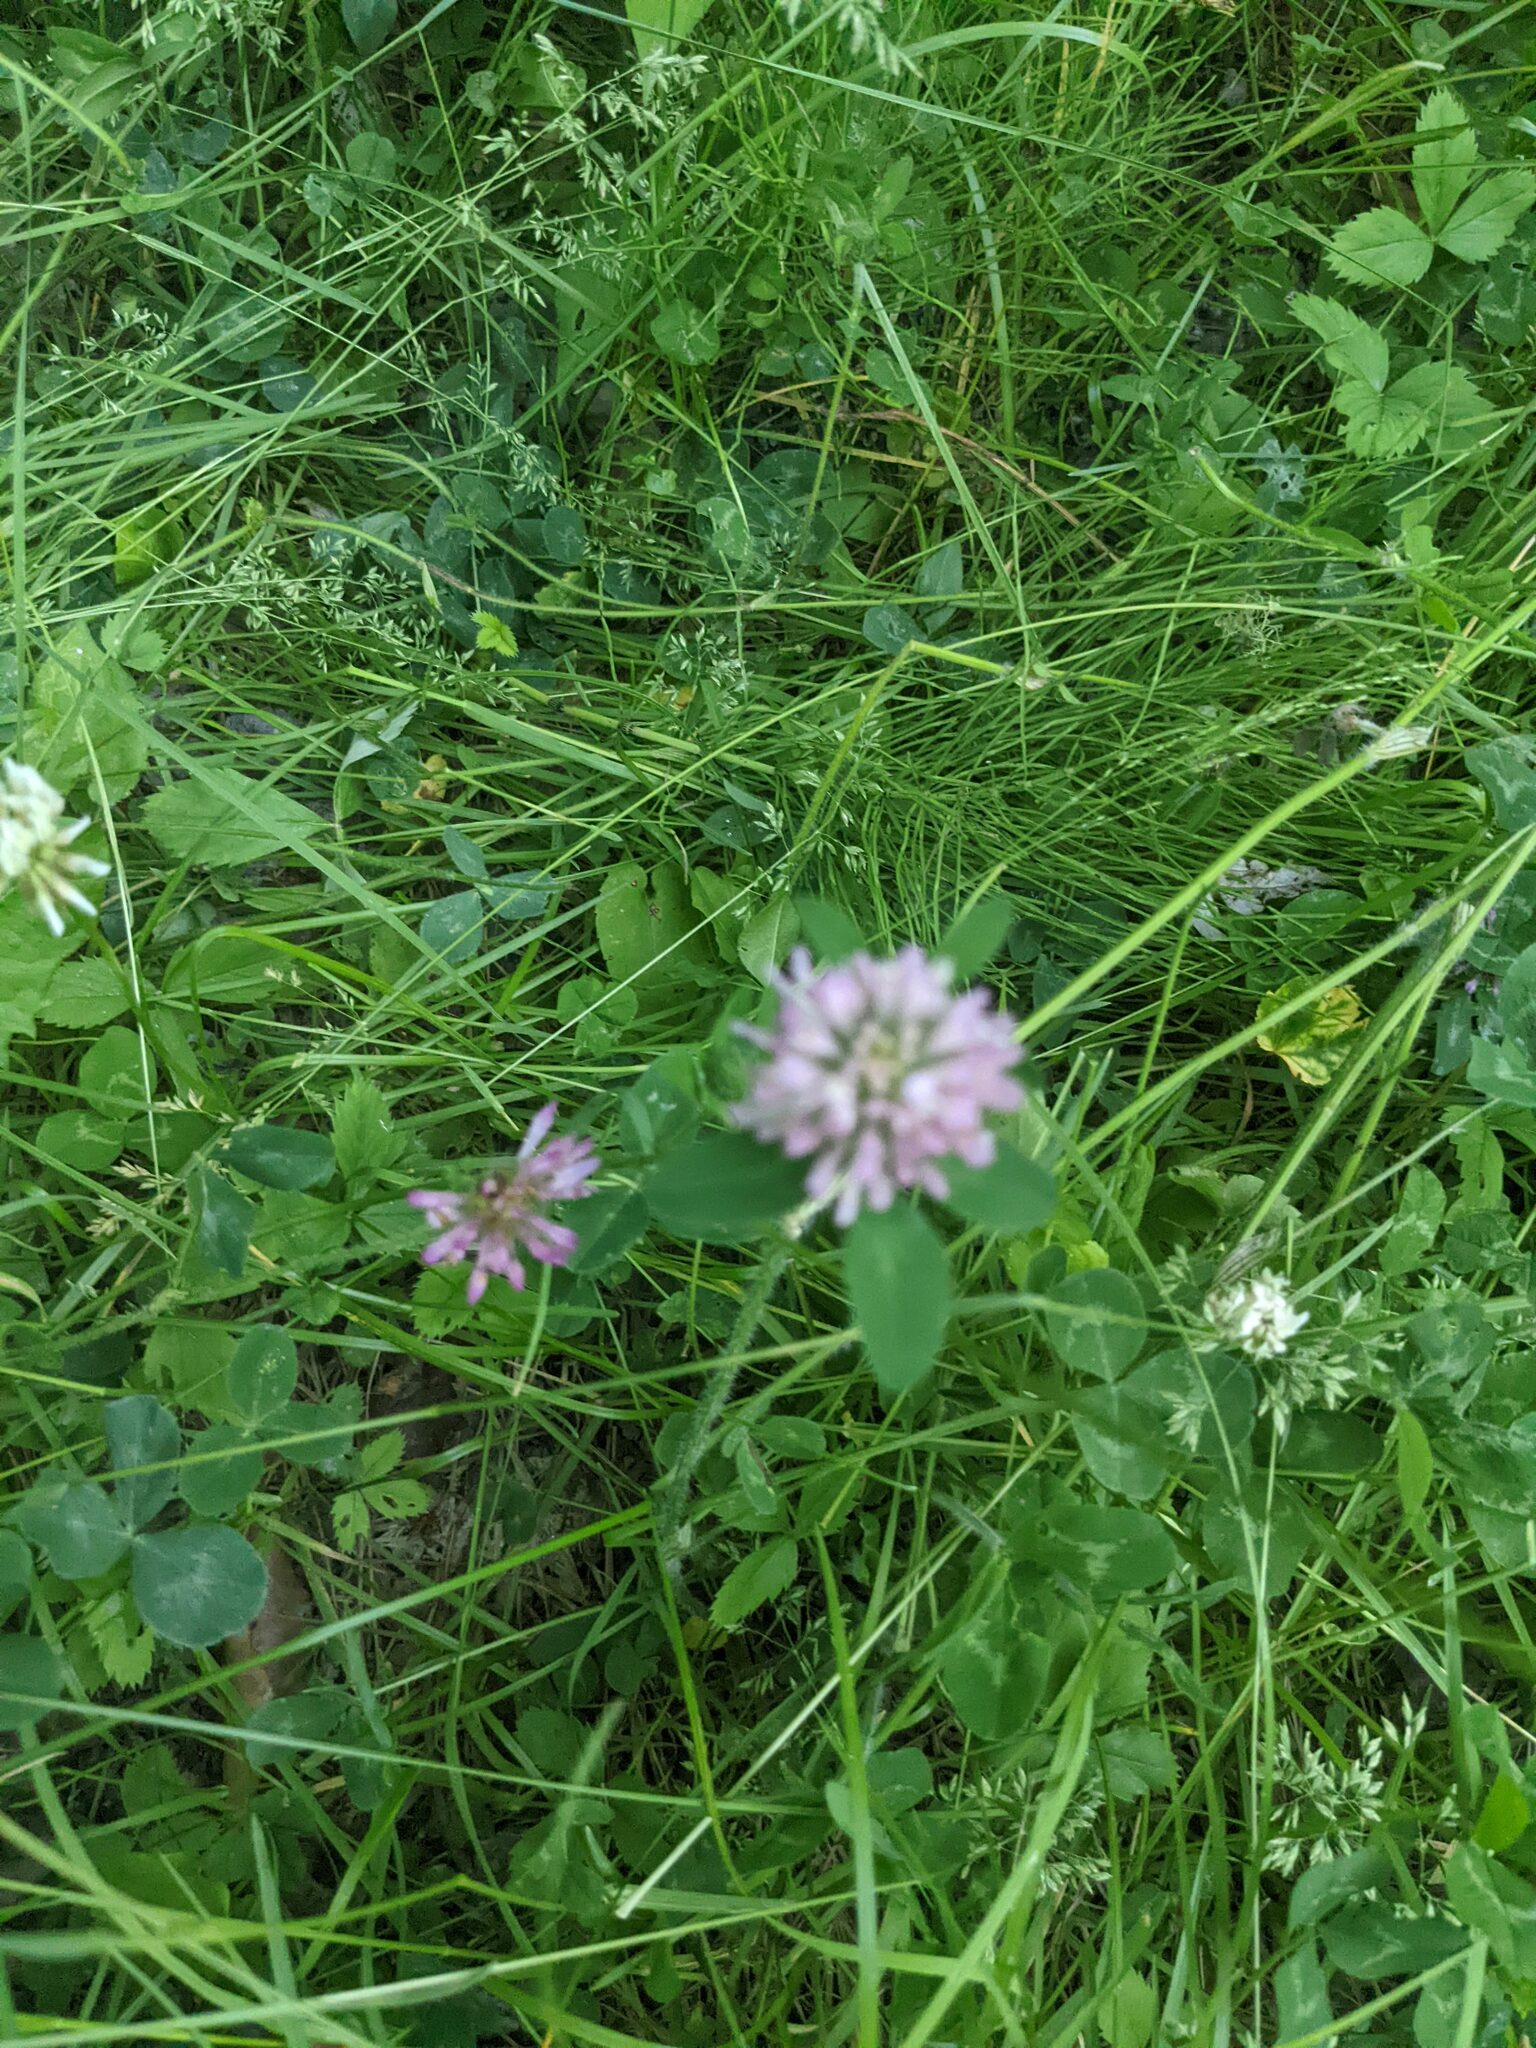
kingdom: Plantae
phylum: Tracheophyta
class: Magnoliopsida
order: Fabales
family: Fabaceae
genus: Trifolium
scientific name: Trifolium pratense
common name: Red clover
